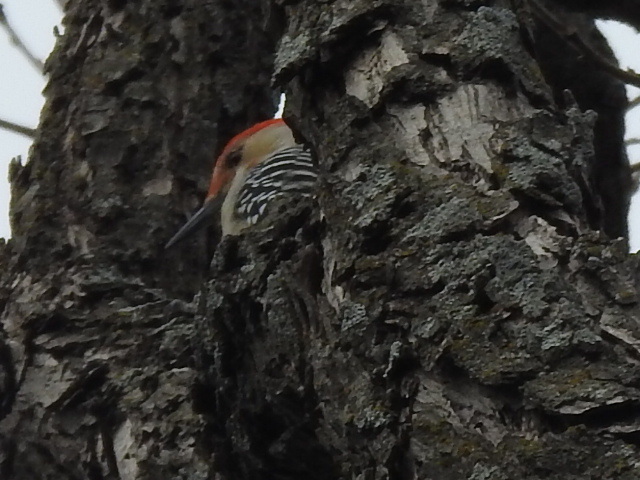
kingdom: Animalia
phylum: Chordata
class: Aves
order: Piciformes
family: Picidae
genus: Melanerpes
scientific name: Melanerpes carolinus
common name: Red-bellied woodpecker
